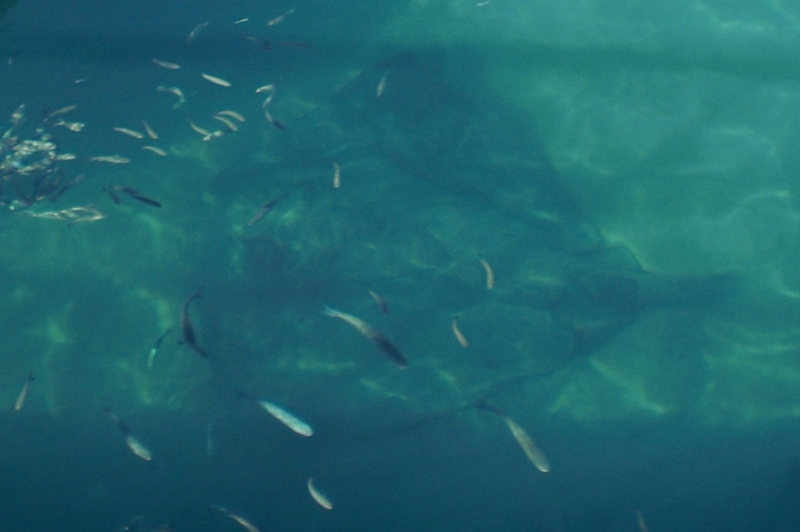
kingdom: Animalia
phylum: Chordata
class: Elasmobranchii
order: Myliobatiformes
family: Dasyatidae
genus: Bathytoshia
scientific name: Bathytoshia lata
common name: Brown stingray
